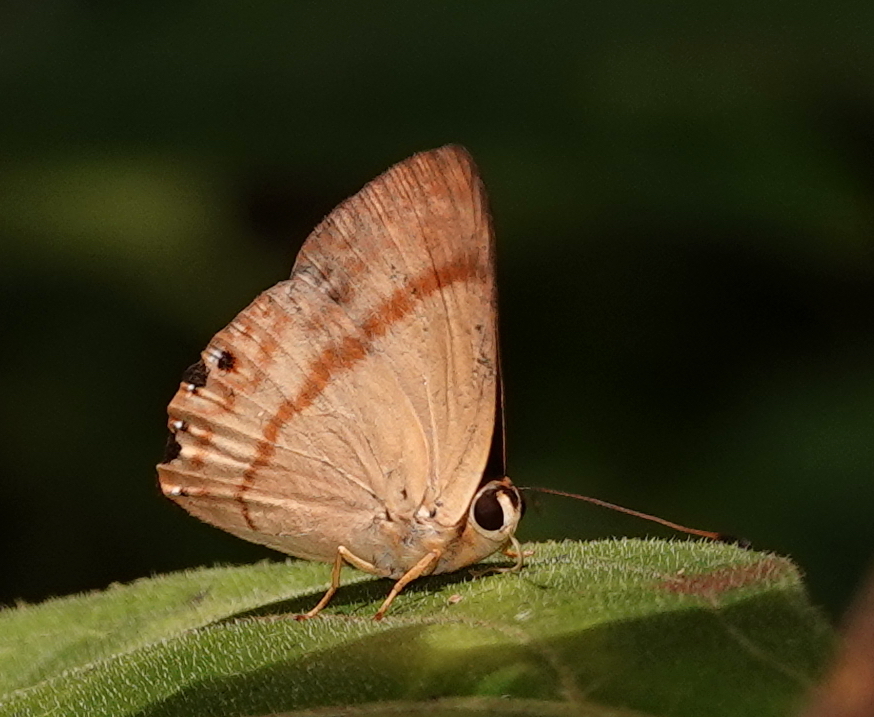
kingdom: Animalia
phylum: Arthropoda
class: Insecta
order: Lepidoptera
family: Lycaenidae
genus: Euselasia
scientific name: Euselasia
